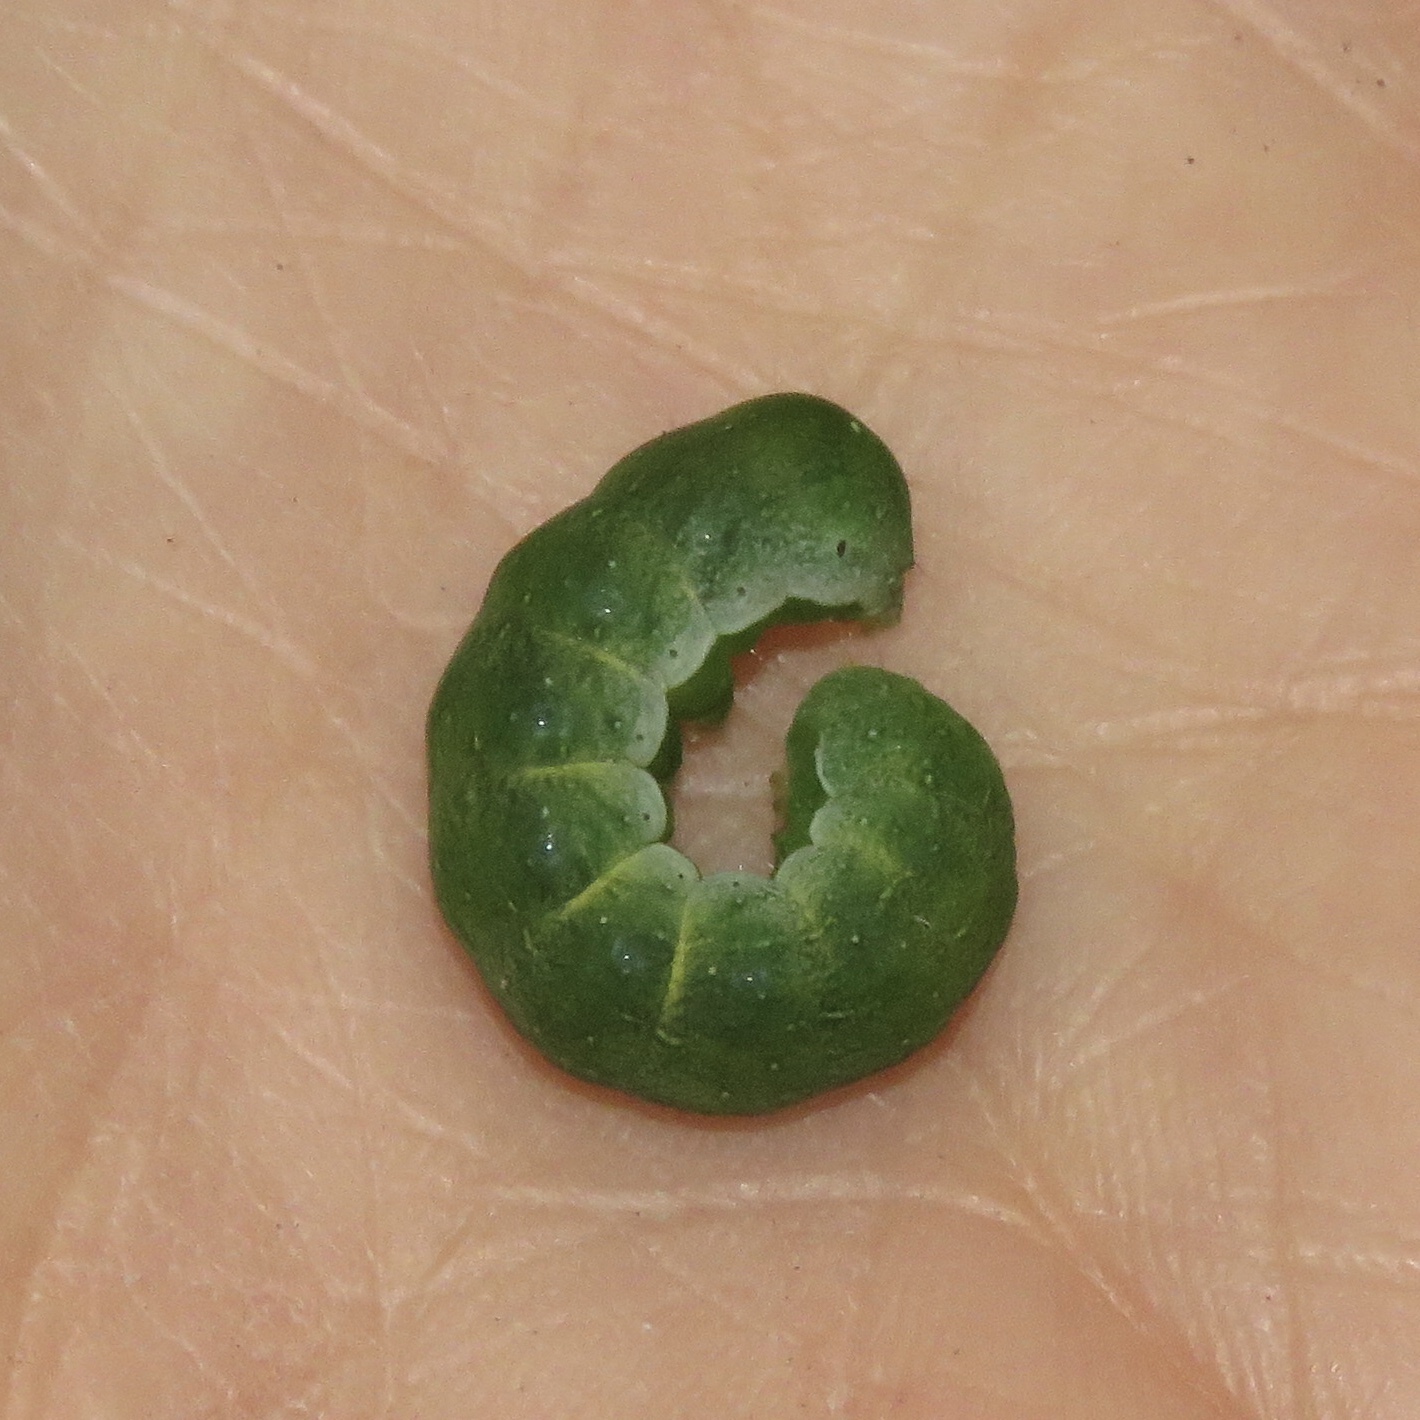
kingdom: Animalia
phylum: Arthropoda
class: Insecta
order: Lepidoptera
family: Noctuidae
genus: Euplexia
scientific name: Euplexia lucipara
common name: Small angle shades
